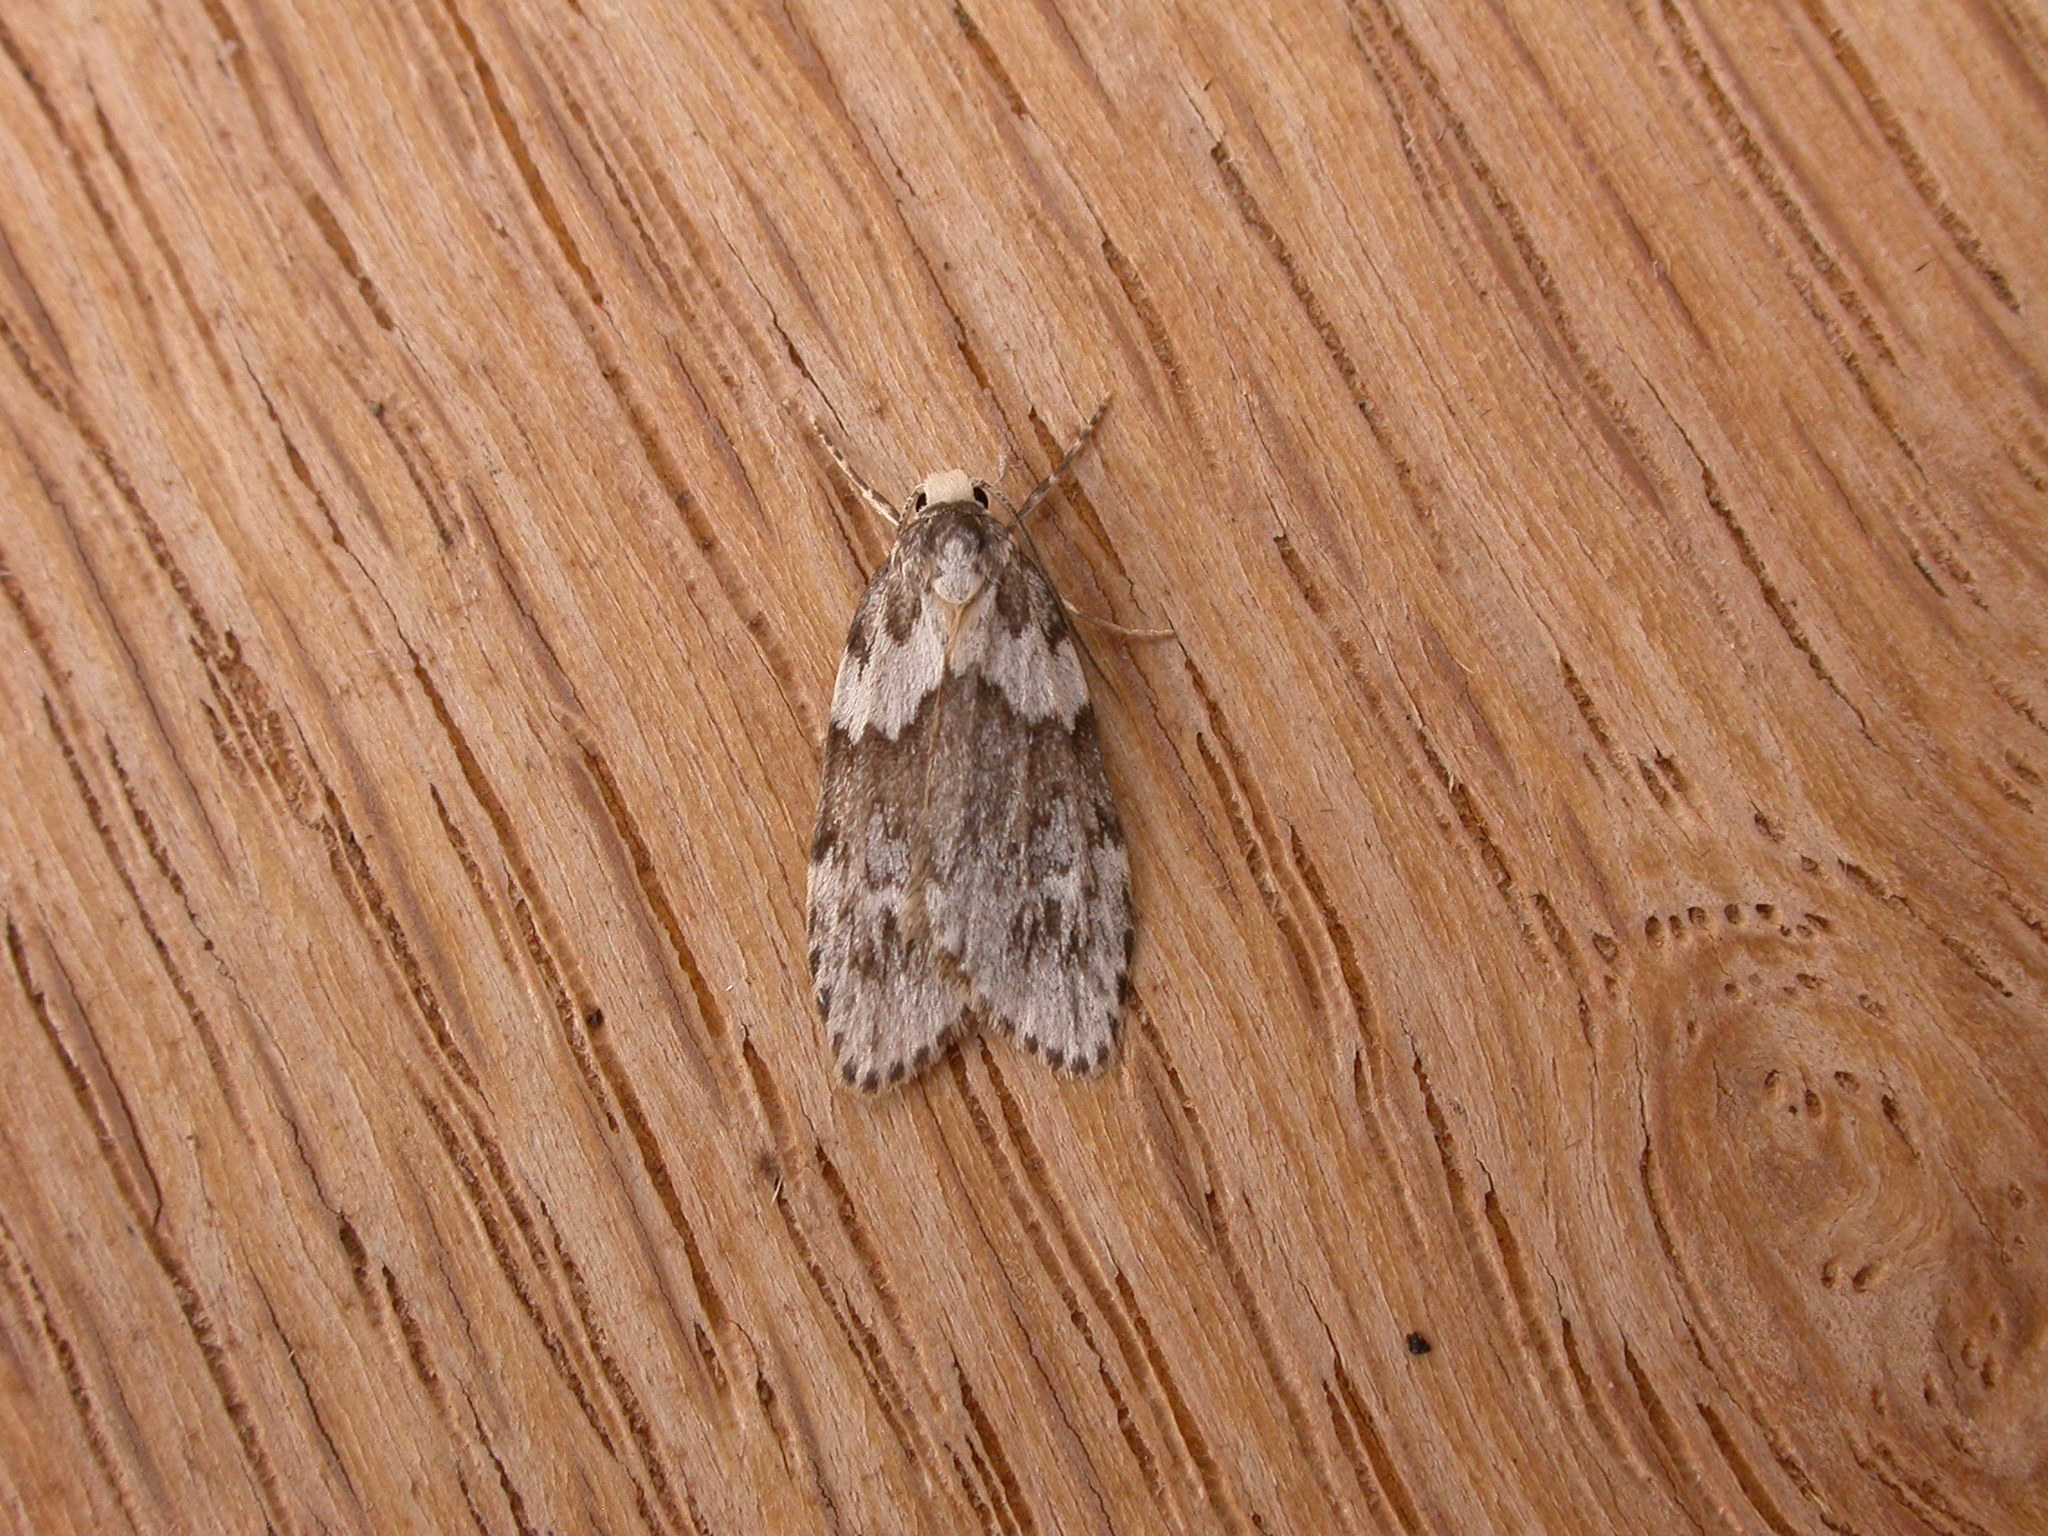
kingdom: Animalia
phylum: Arthropoda
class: Insecta
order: Lepidoptera
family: Erebidae
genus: Halone
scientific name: Halone prosenes
